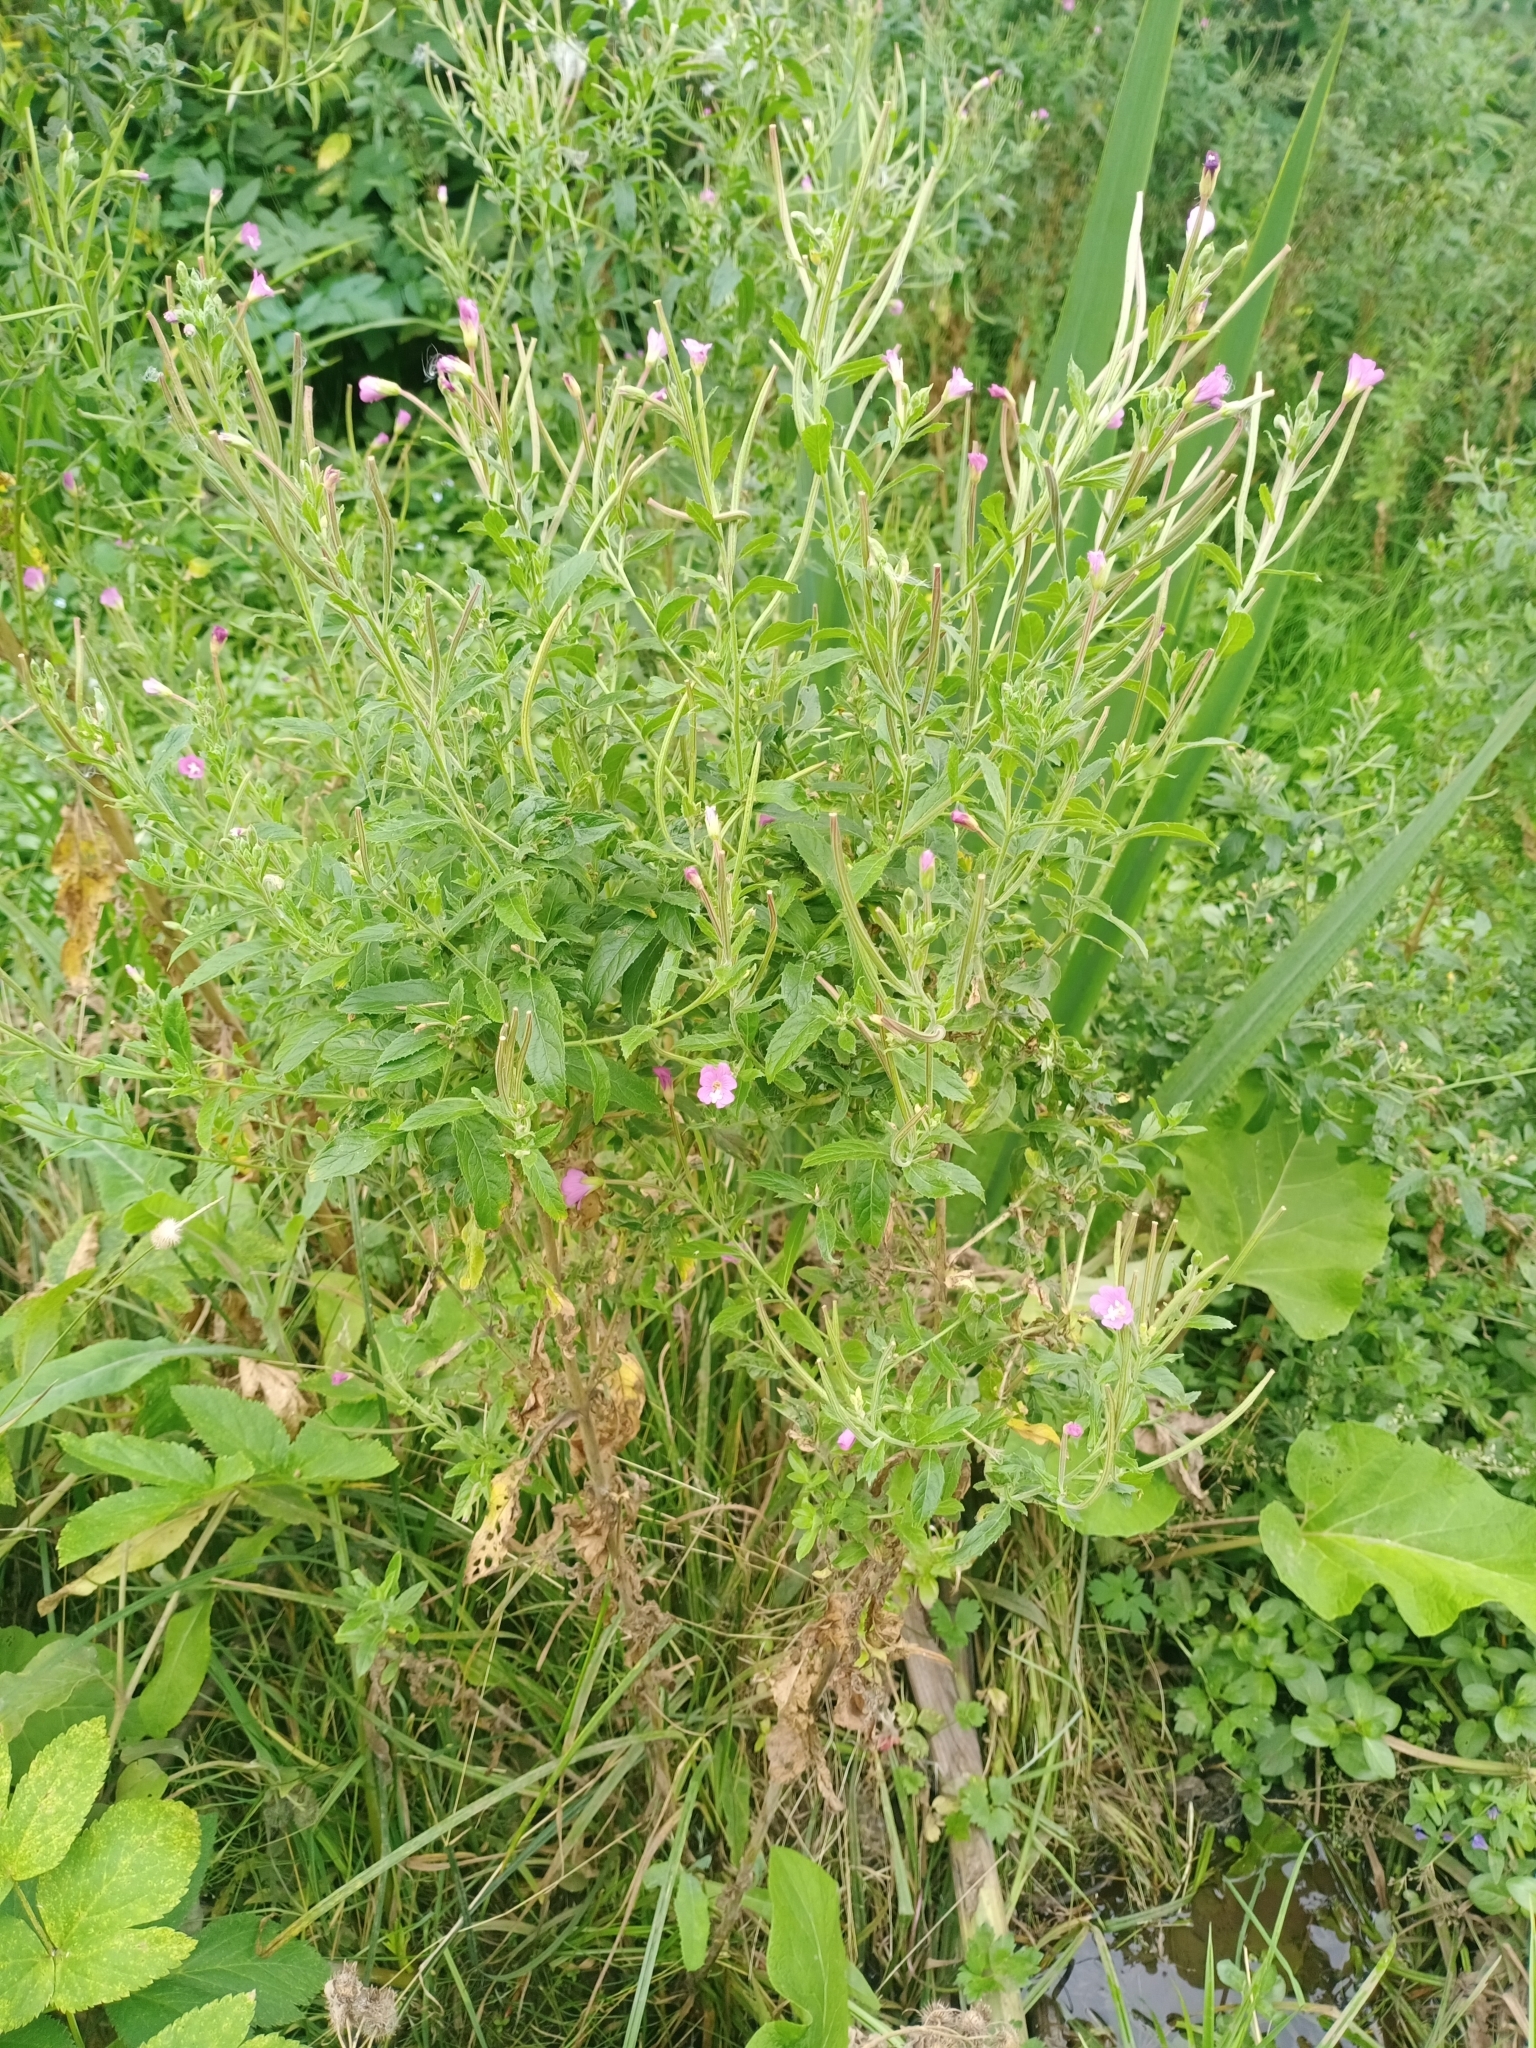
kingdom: Plantae
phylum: Tracheophyta
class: Magnoliopsida
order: Myrtales
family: Onagraceae
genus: Epilobium
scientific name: Epilobium hirsutum
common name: Great willowherb
